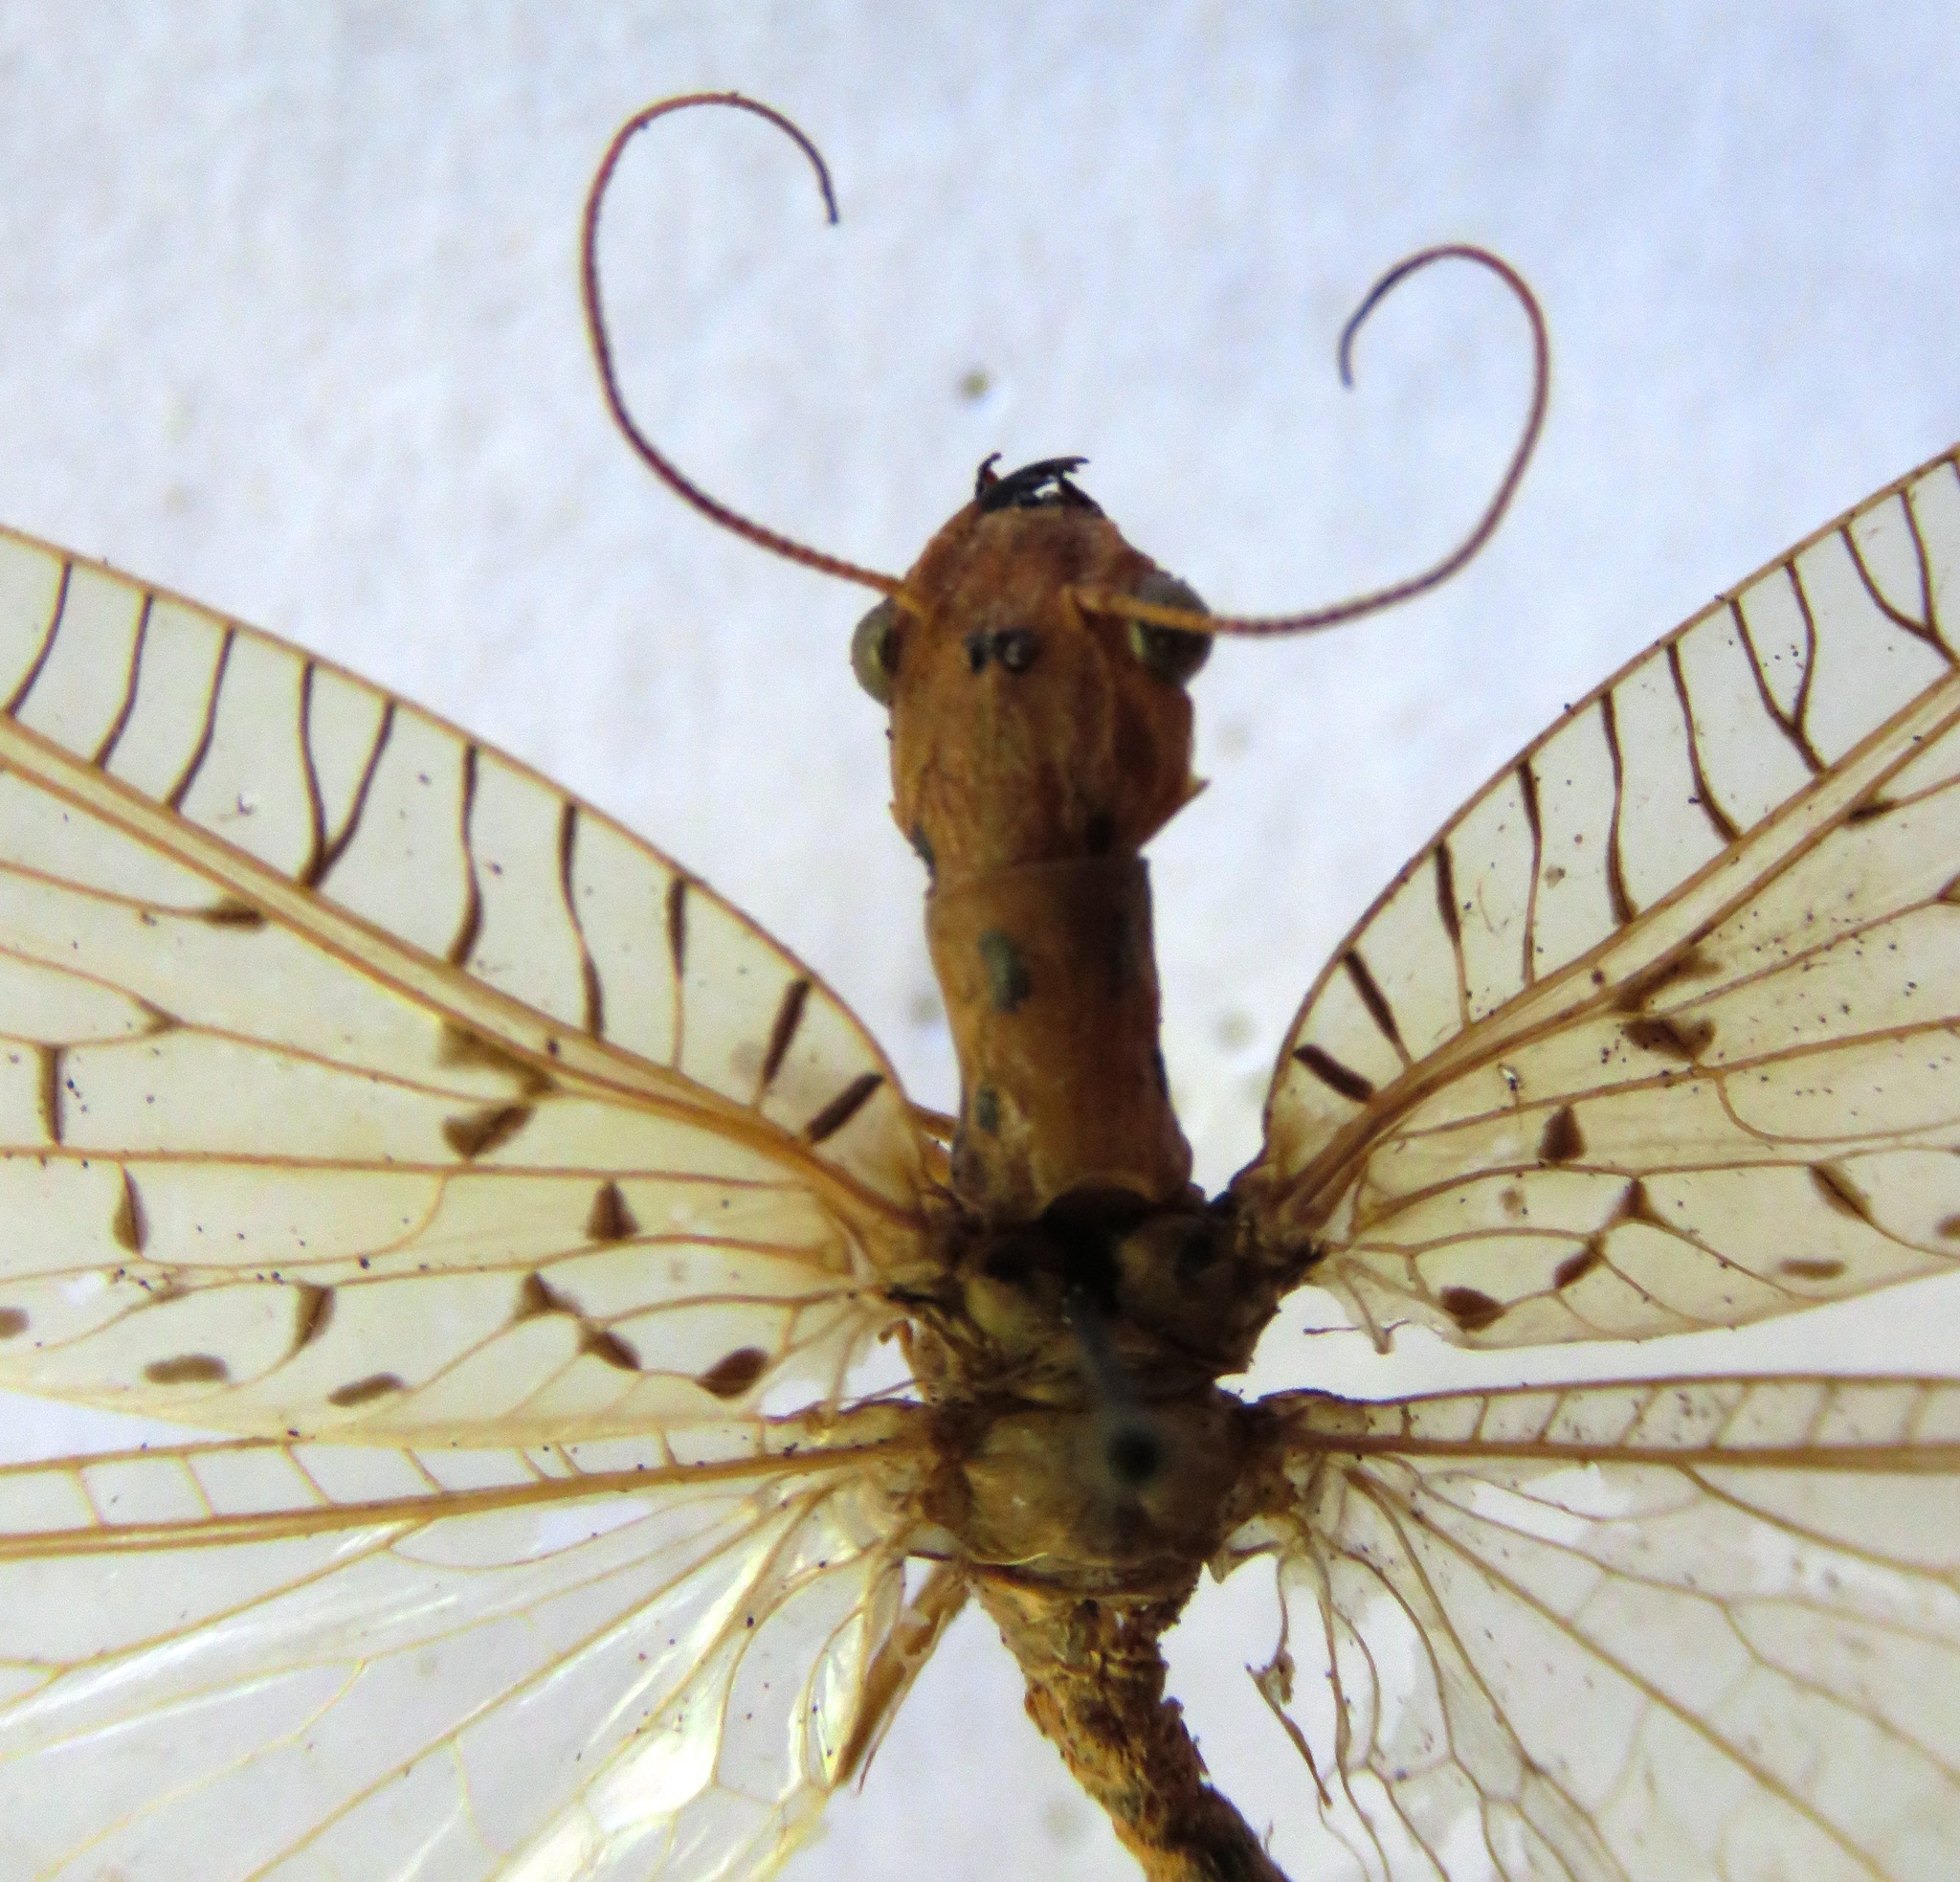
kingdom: Animalia
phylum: Arthropoda
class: Insecta
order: Megaloptera
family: Corydalidae
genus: Chloronia
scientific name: Chloronia mirifica
